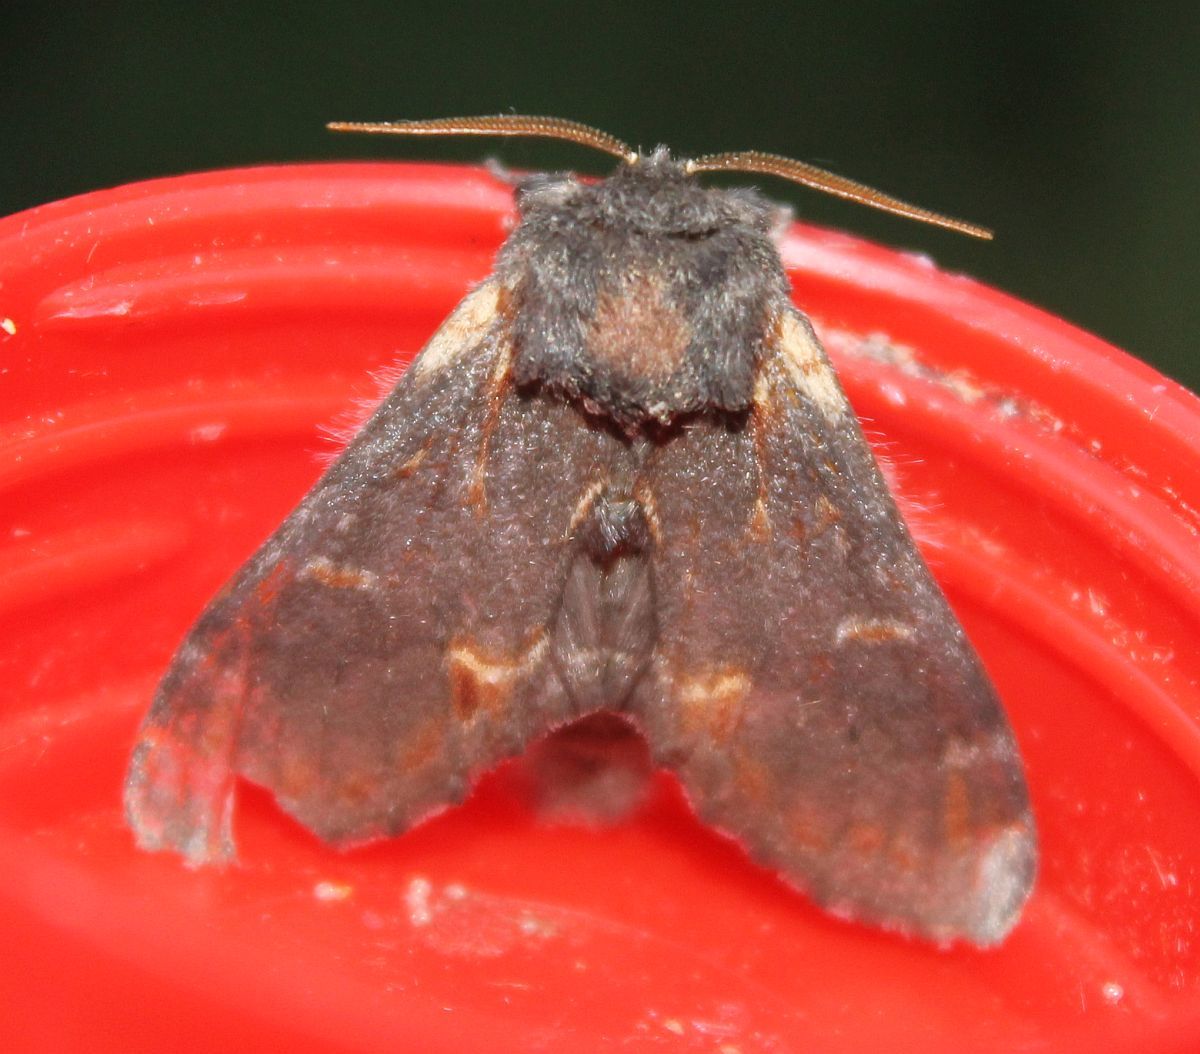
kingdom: Animalia
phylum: Arthropoda
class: Insecta
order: Lepidoptera
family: Notodontidae
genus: Notodonta
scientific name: Notodonta dromedarius
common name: Iron prominent
